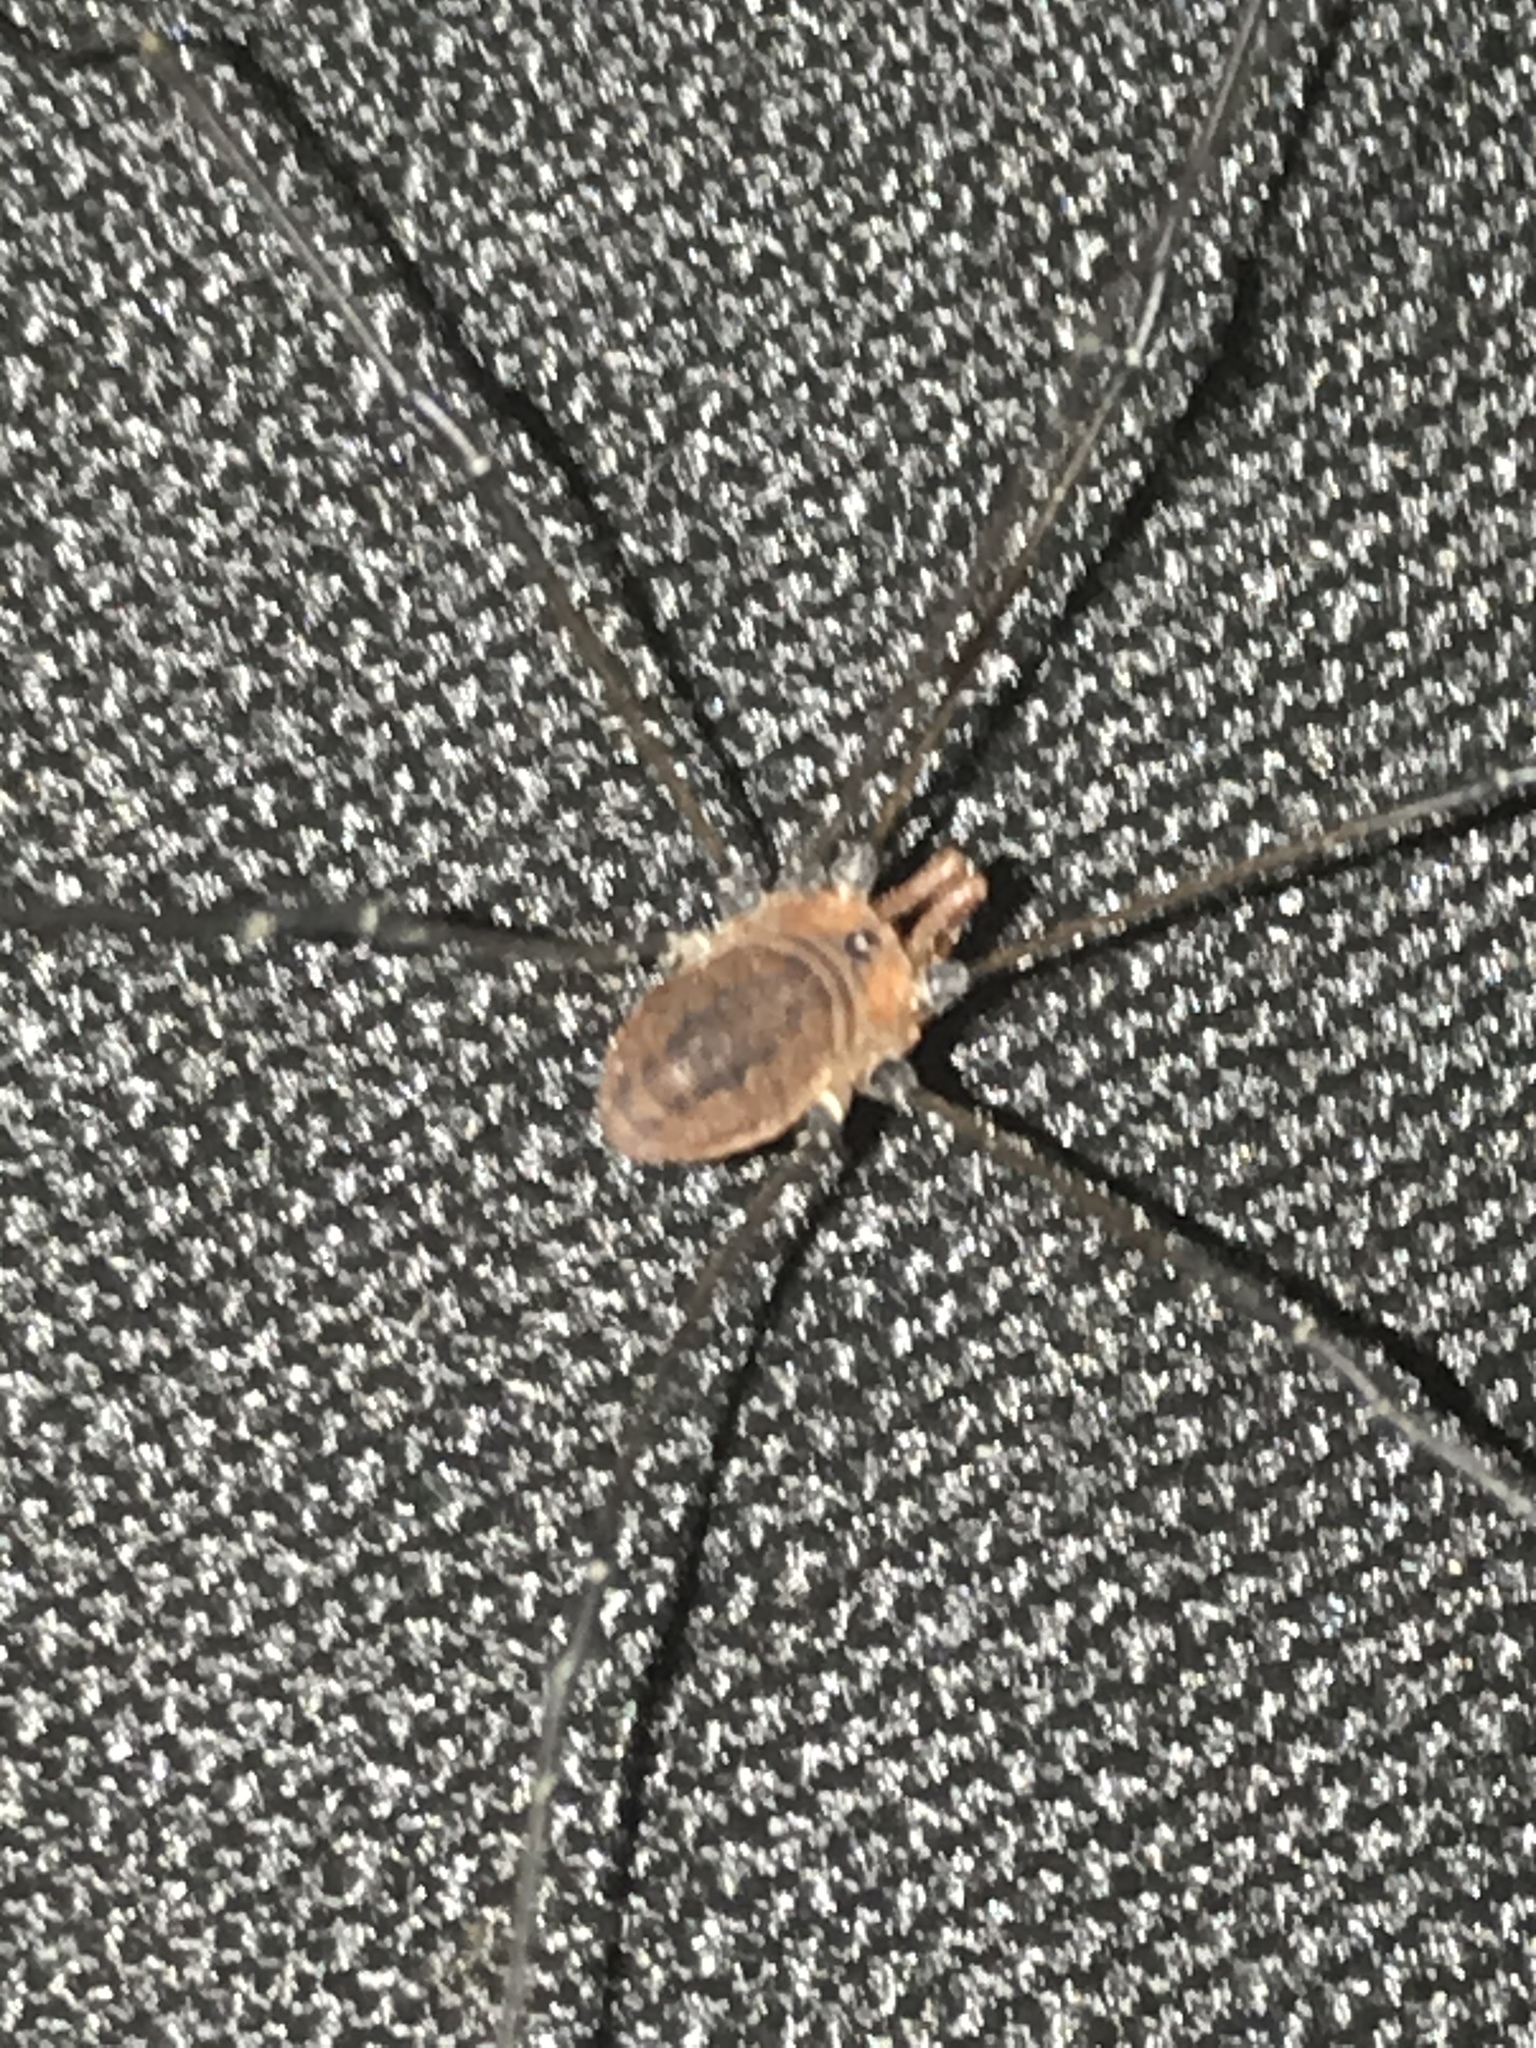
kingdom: Animalia
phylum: Arthropoda
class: Arachnida
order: Opiliones
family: Sclerosomatidae
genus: Leiobunum
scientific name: Leiobunum vittatum
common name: Eastern harvestman
